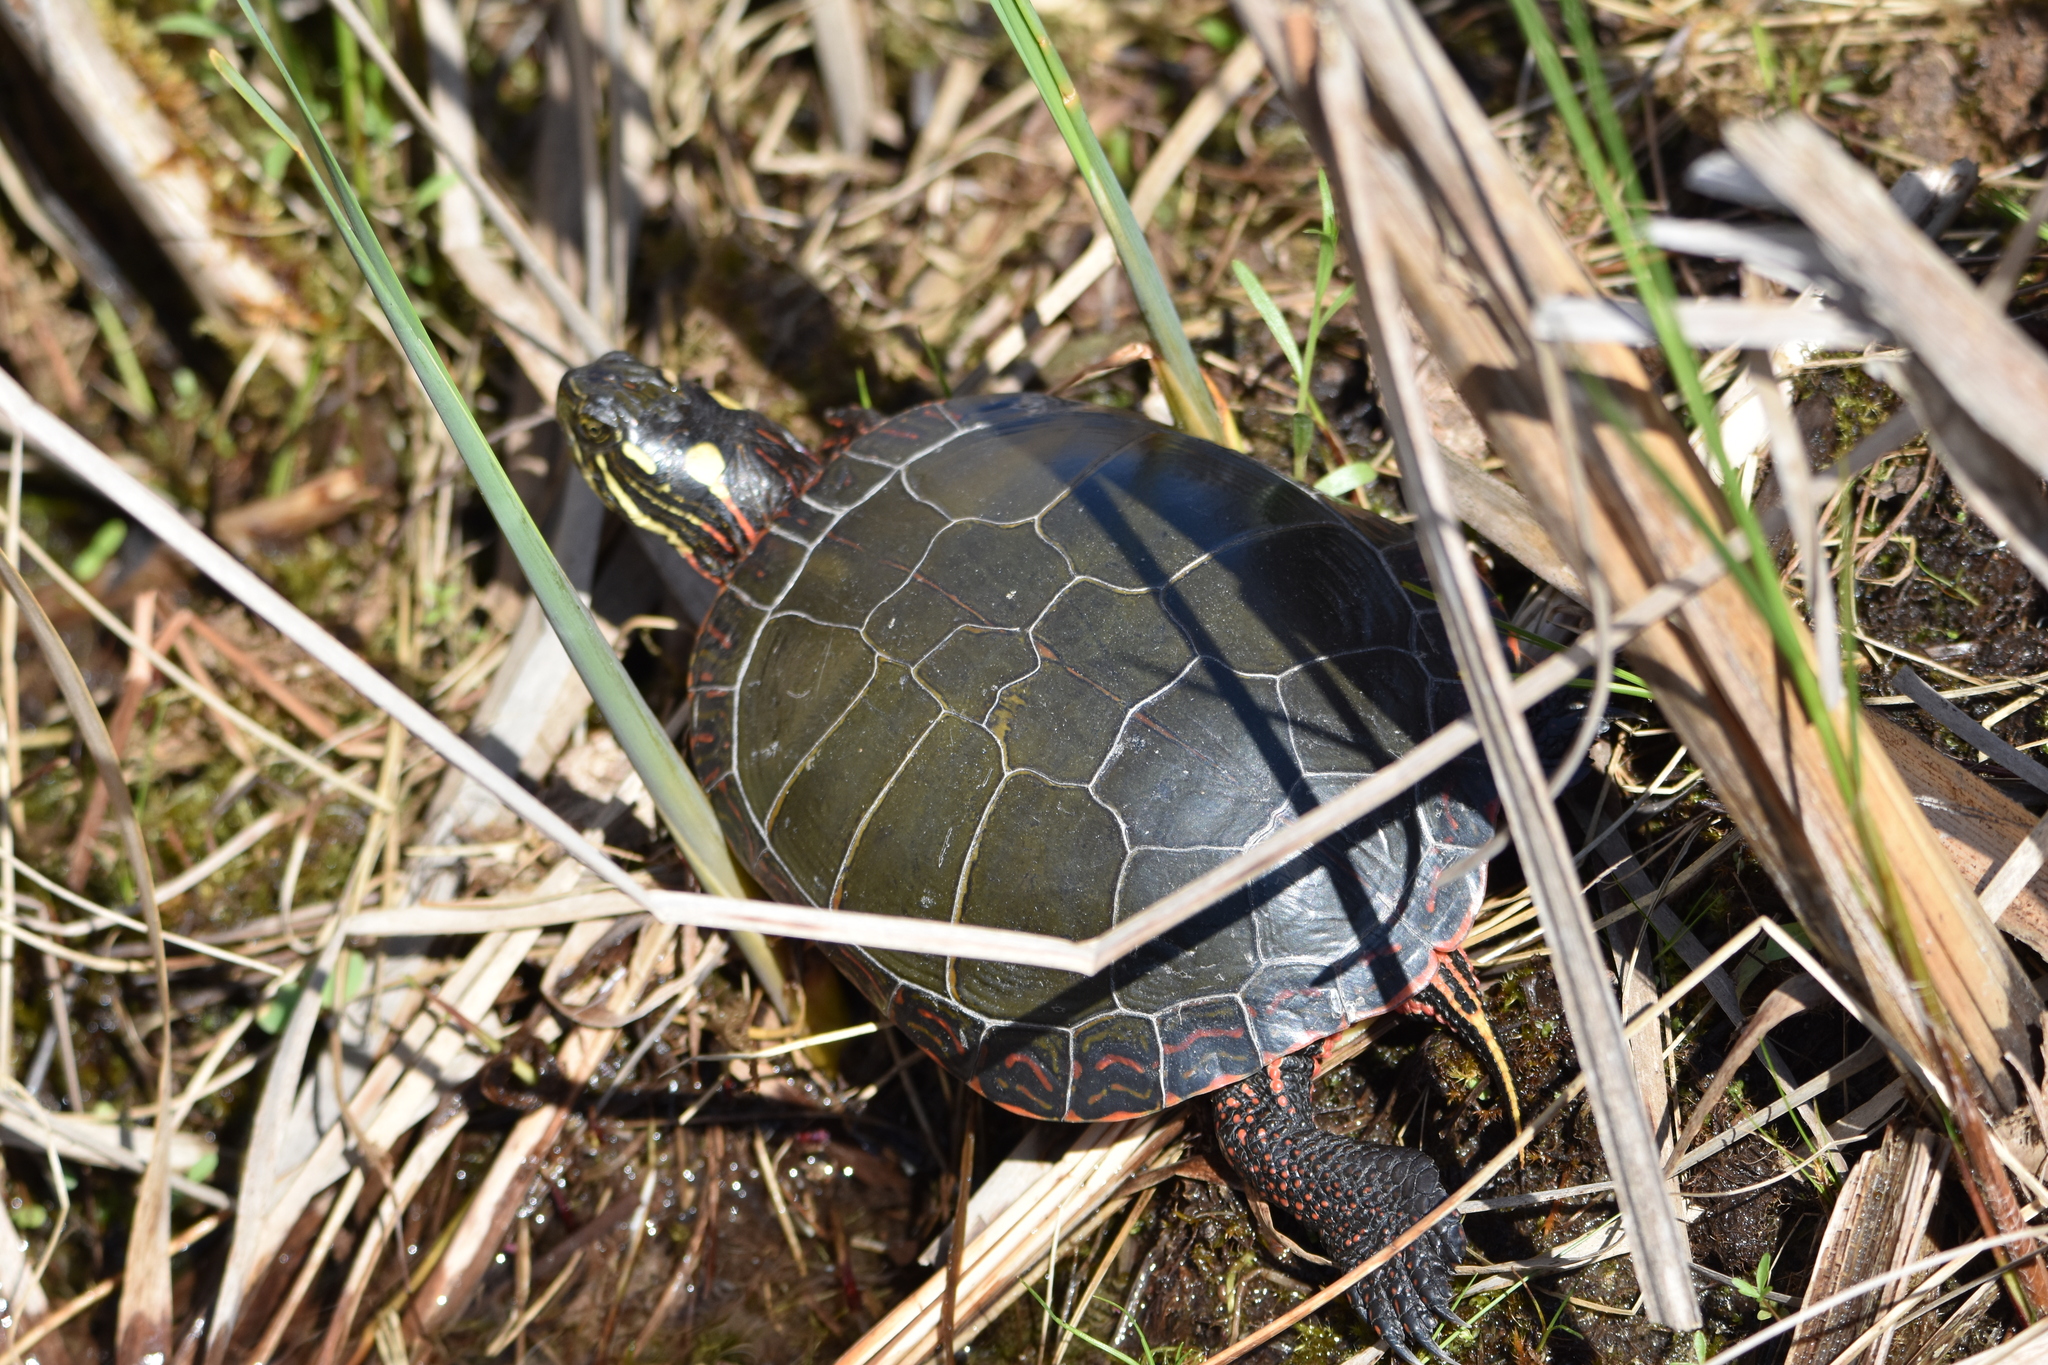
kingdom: Animalia
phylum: Chordata
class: Testudines
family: Emydidae
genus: Chrysemys
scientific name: Chrysemys picta
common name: Painted turtle
